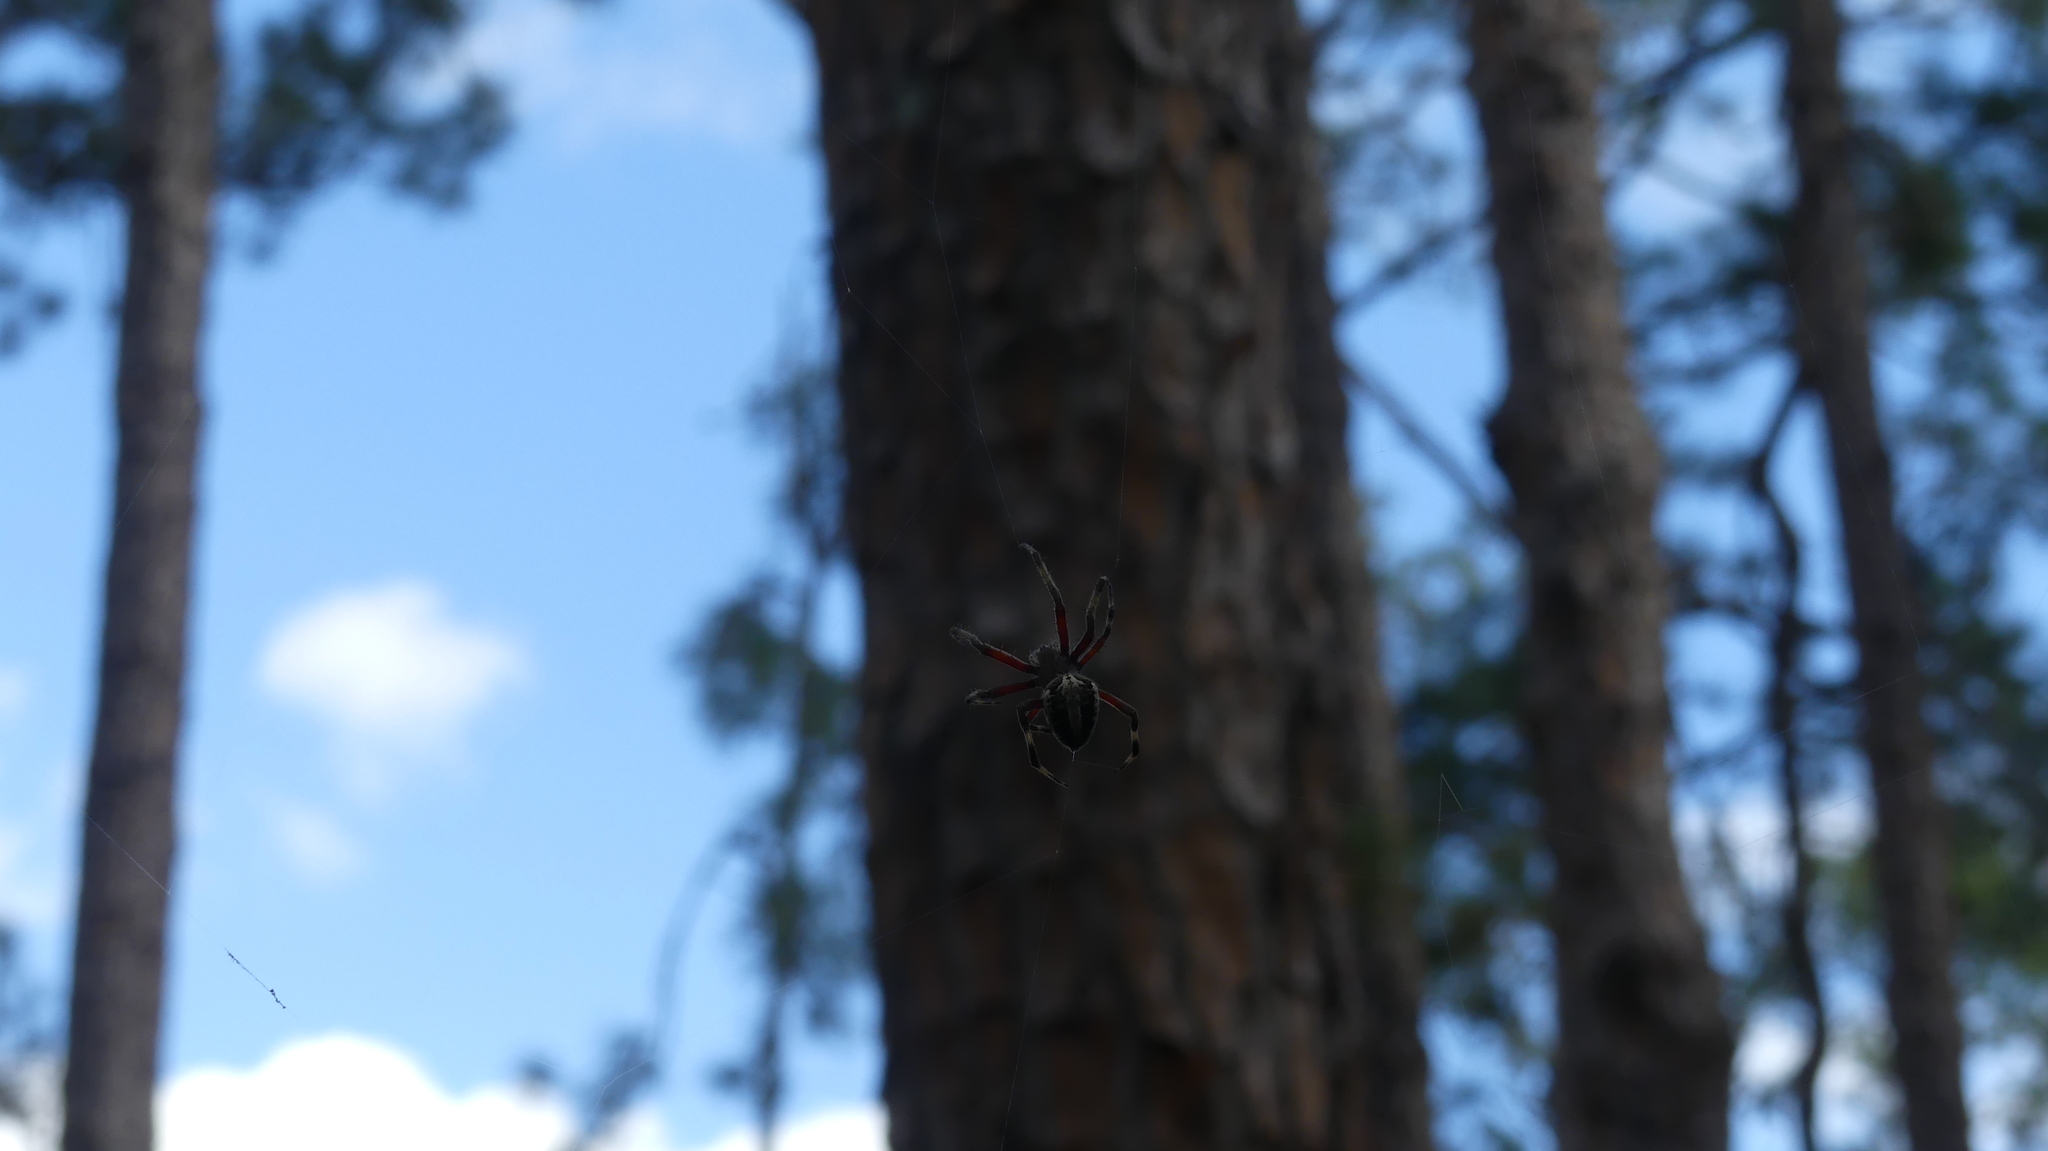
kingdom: Animalia
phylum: Arthropoda
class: Arachnida
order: Araneae
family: Araneidae
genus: Neoscona
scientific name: Neoscona domiciliorum
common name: Red-femured spotted orbweaver
